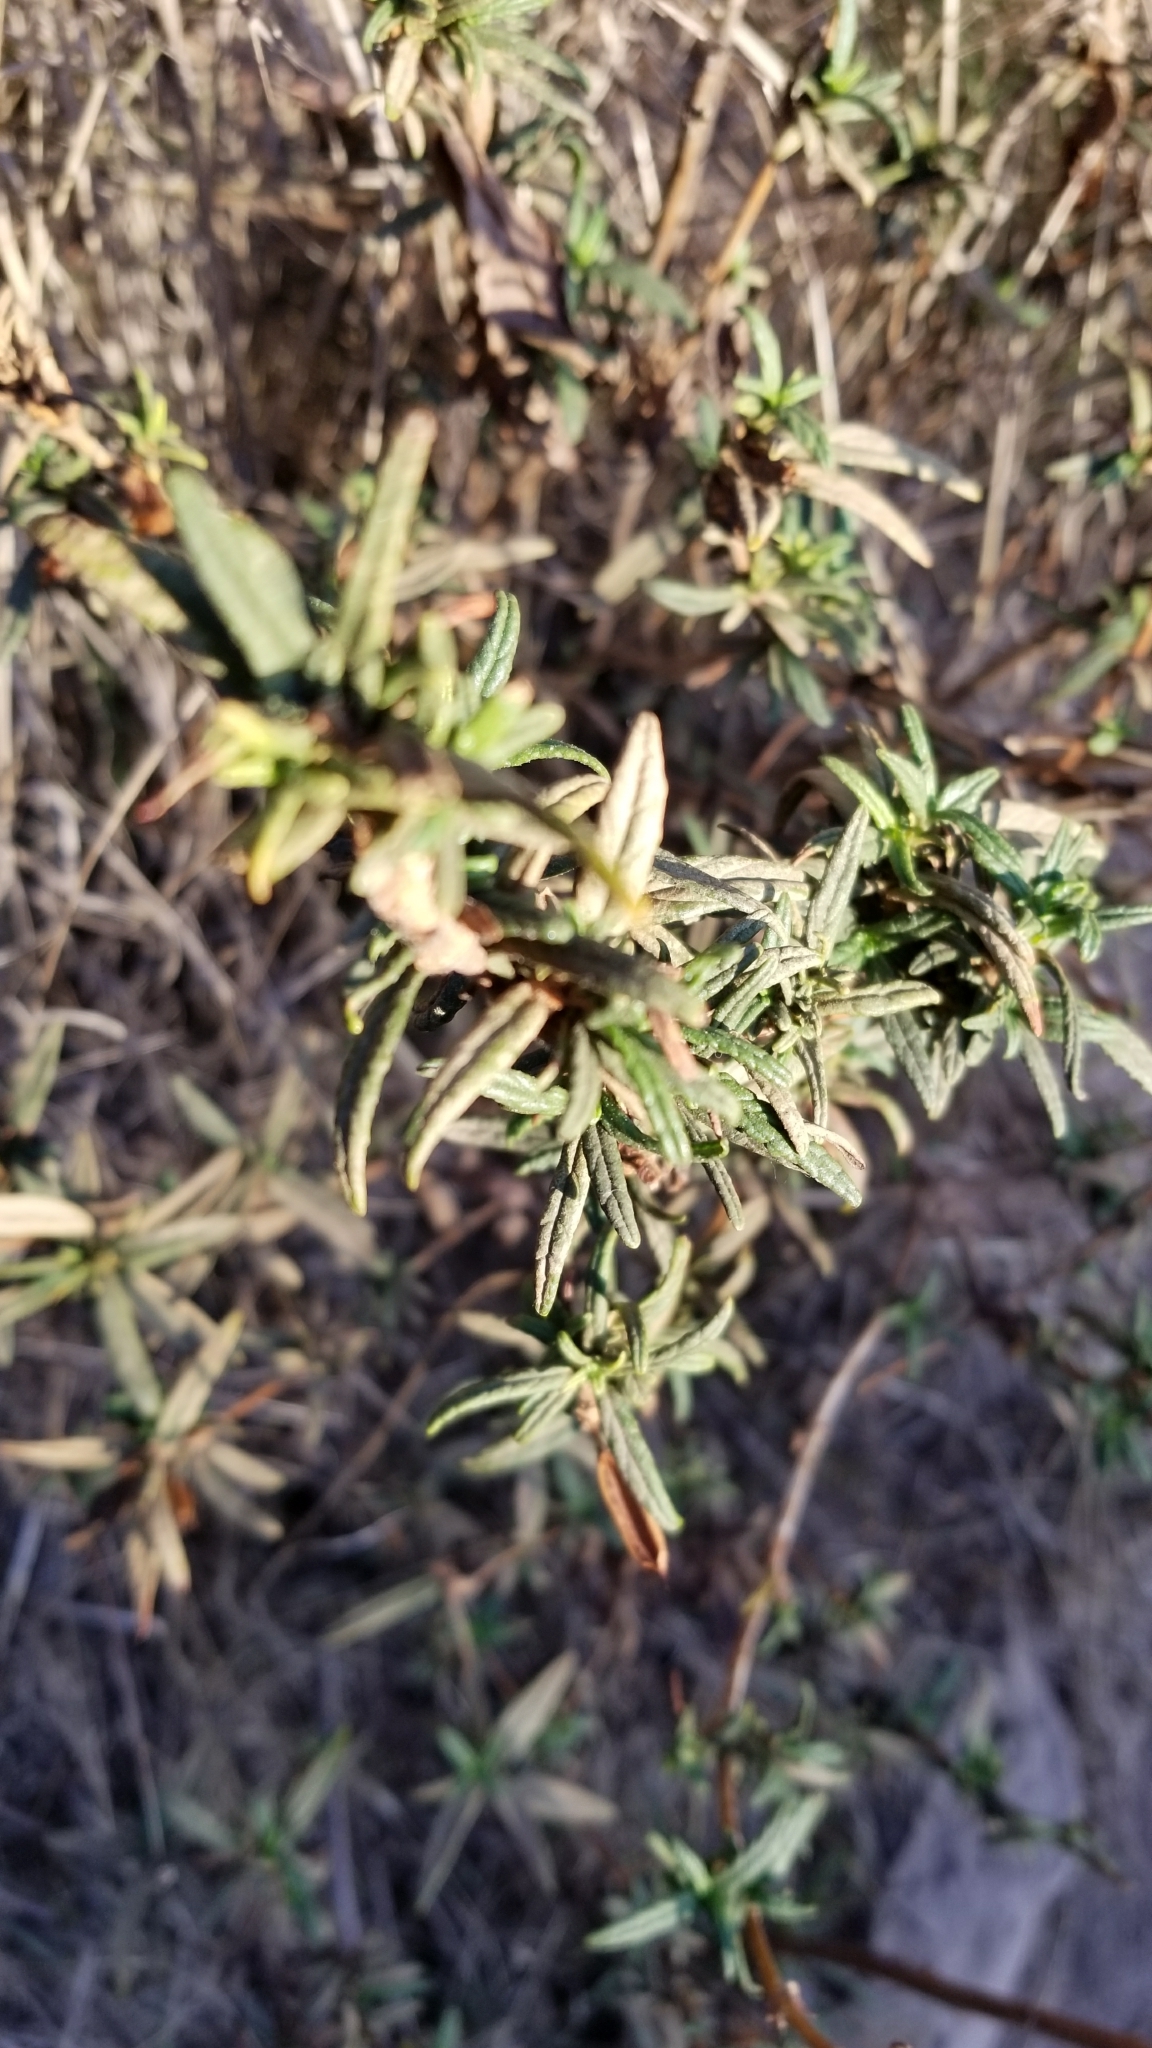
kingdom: Plantae
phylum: Tracheophyta
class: Magnoliopsida
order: Lamiales
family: Phrymaceae
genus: Diplacus
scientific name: Diplacus australis
